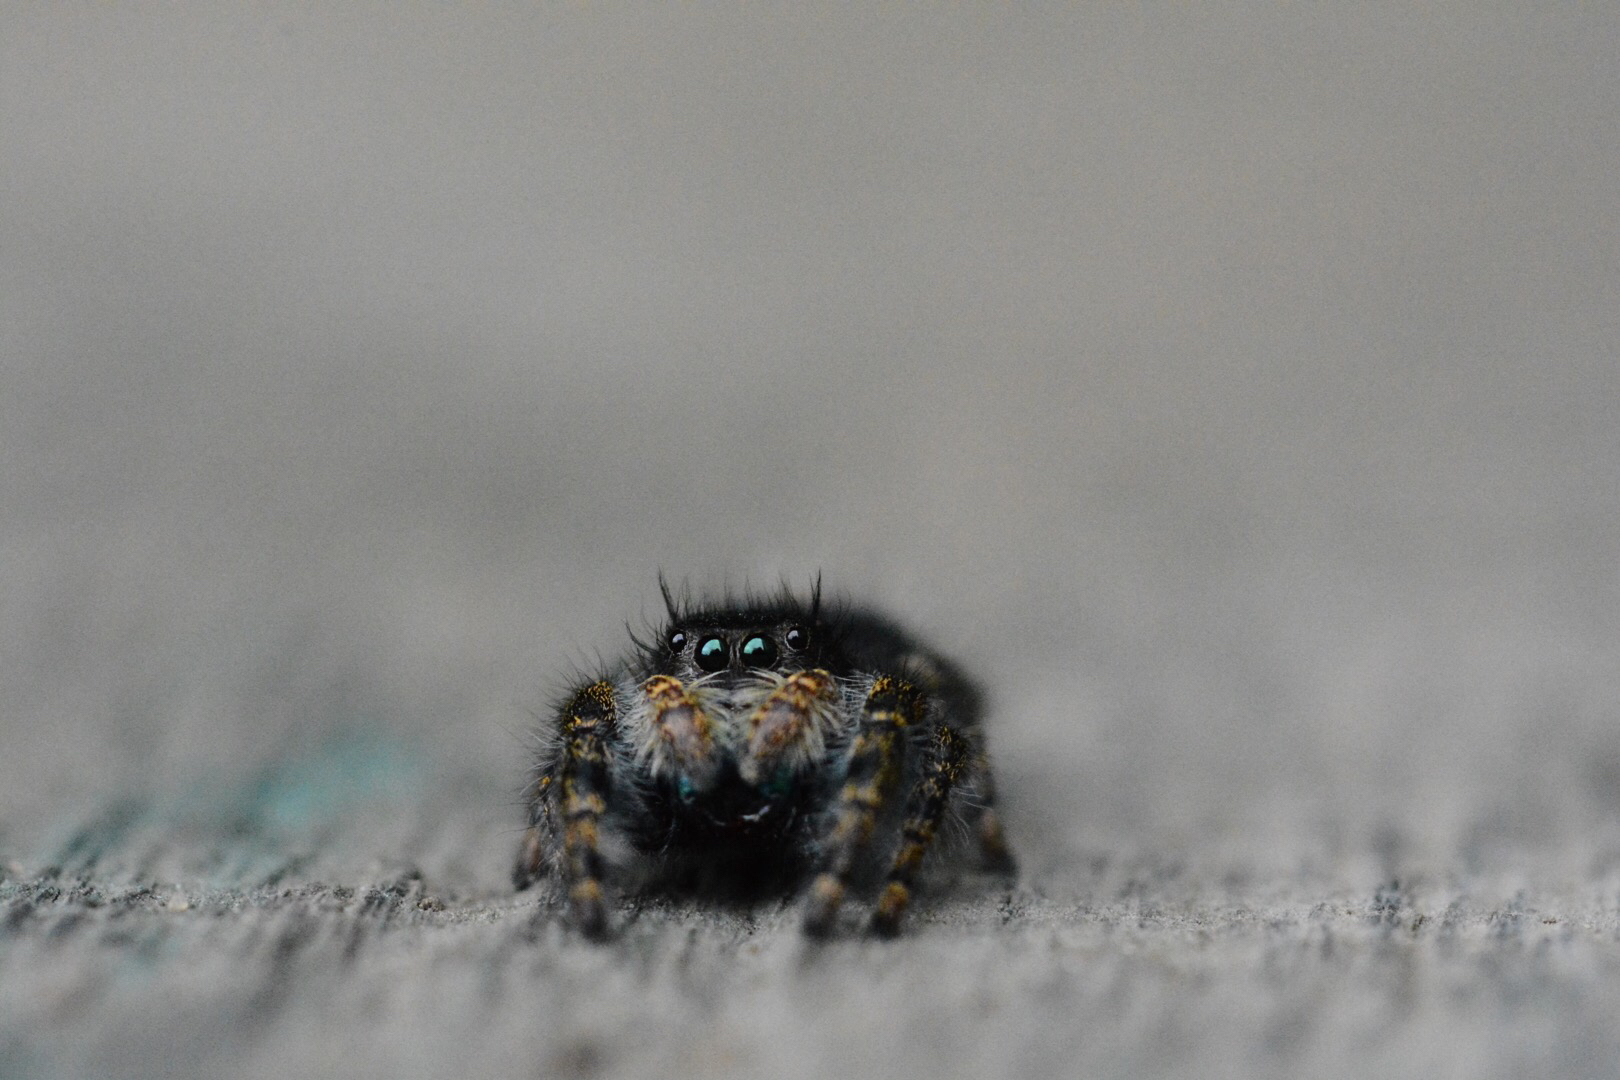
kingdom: Animalia
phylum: Arthropoda
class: Arachnida
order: Araneae
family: Salticidae
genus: Phidippus
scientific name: Phidippus audax
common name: Bold jumper
